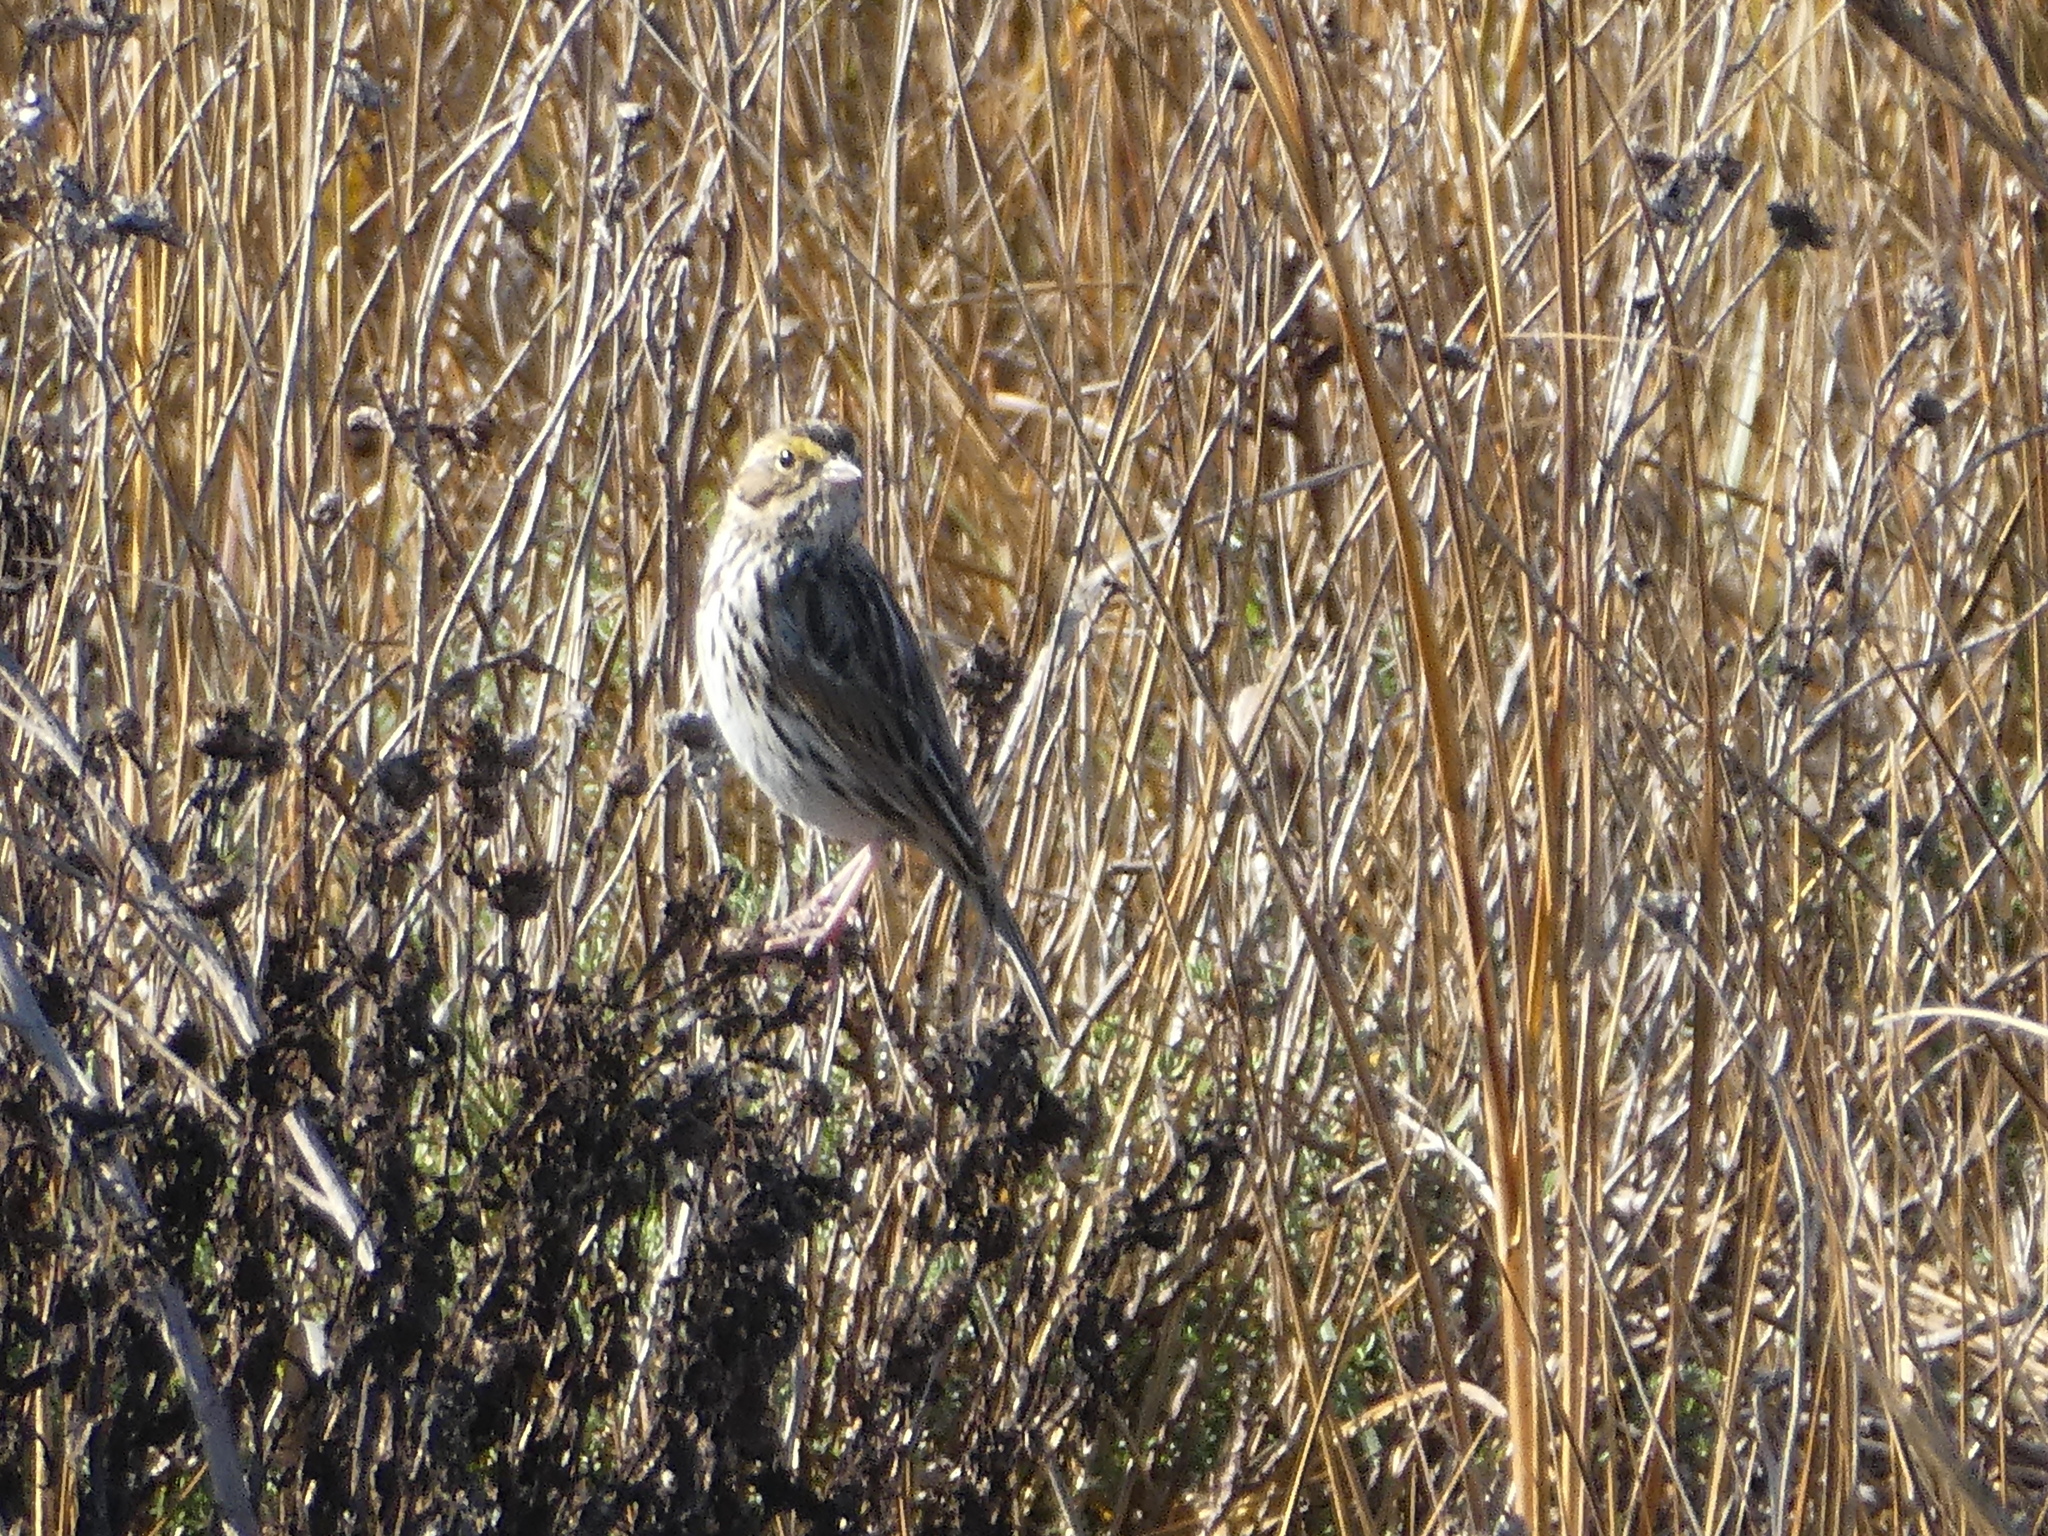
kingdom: Animalia
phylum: Chordata
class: Aves
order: Passeriformes
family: Passerellidae
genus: Passerculus
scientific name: Passerculus sandwichensis
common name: Savannah sparrow
